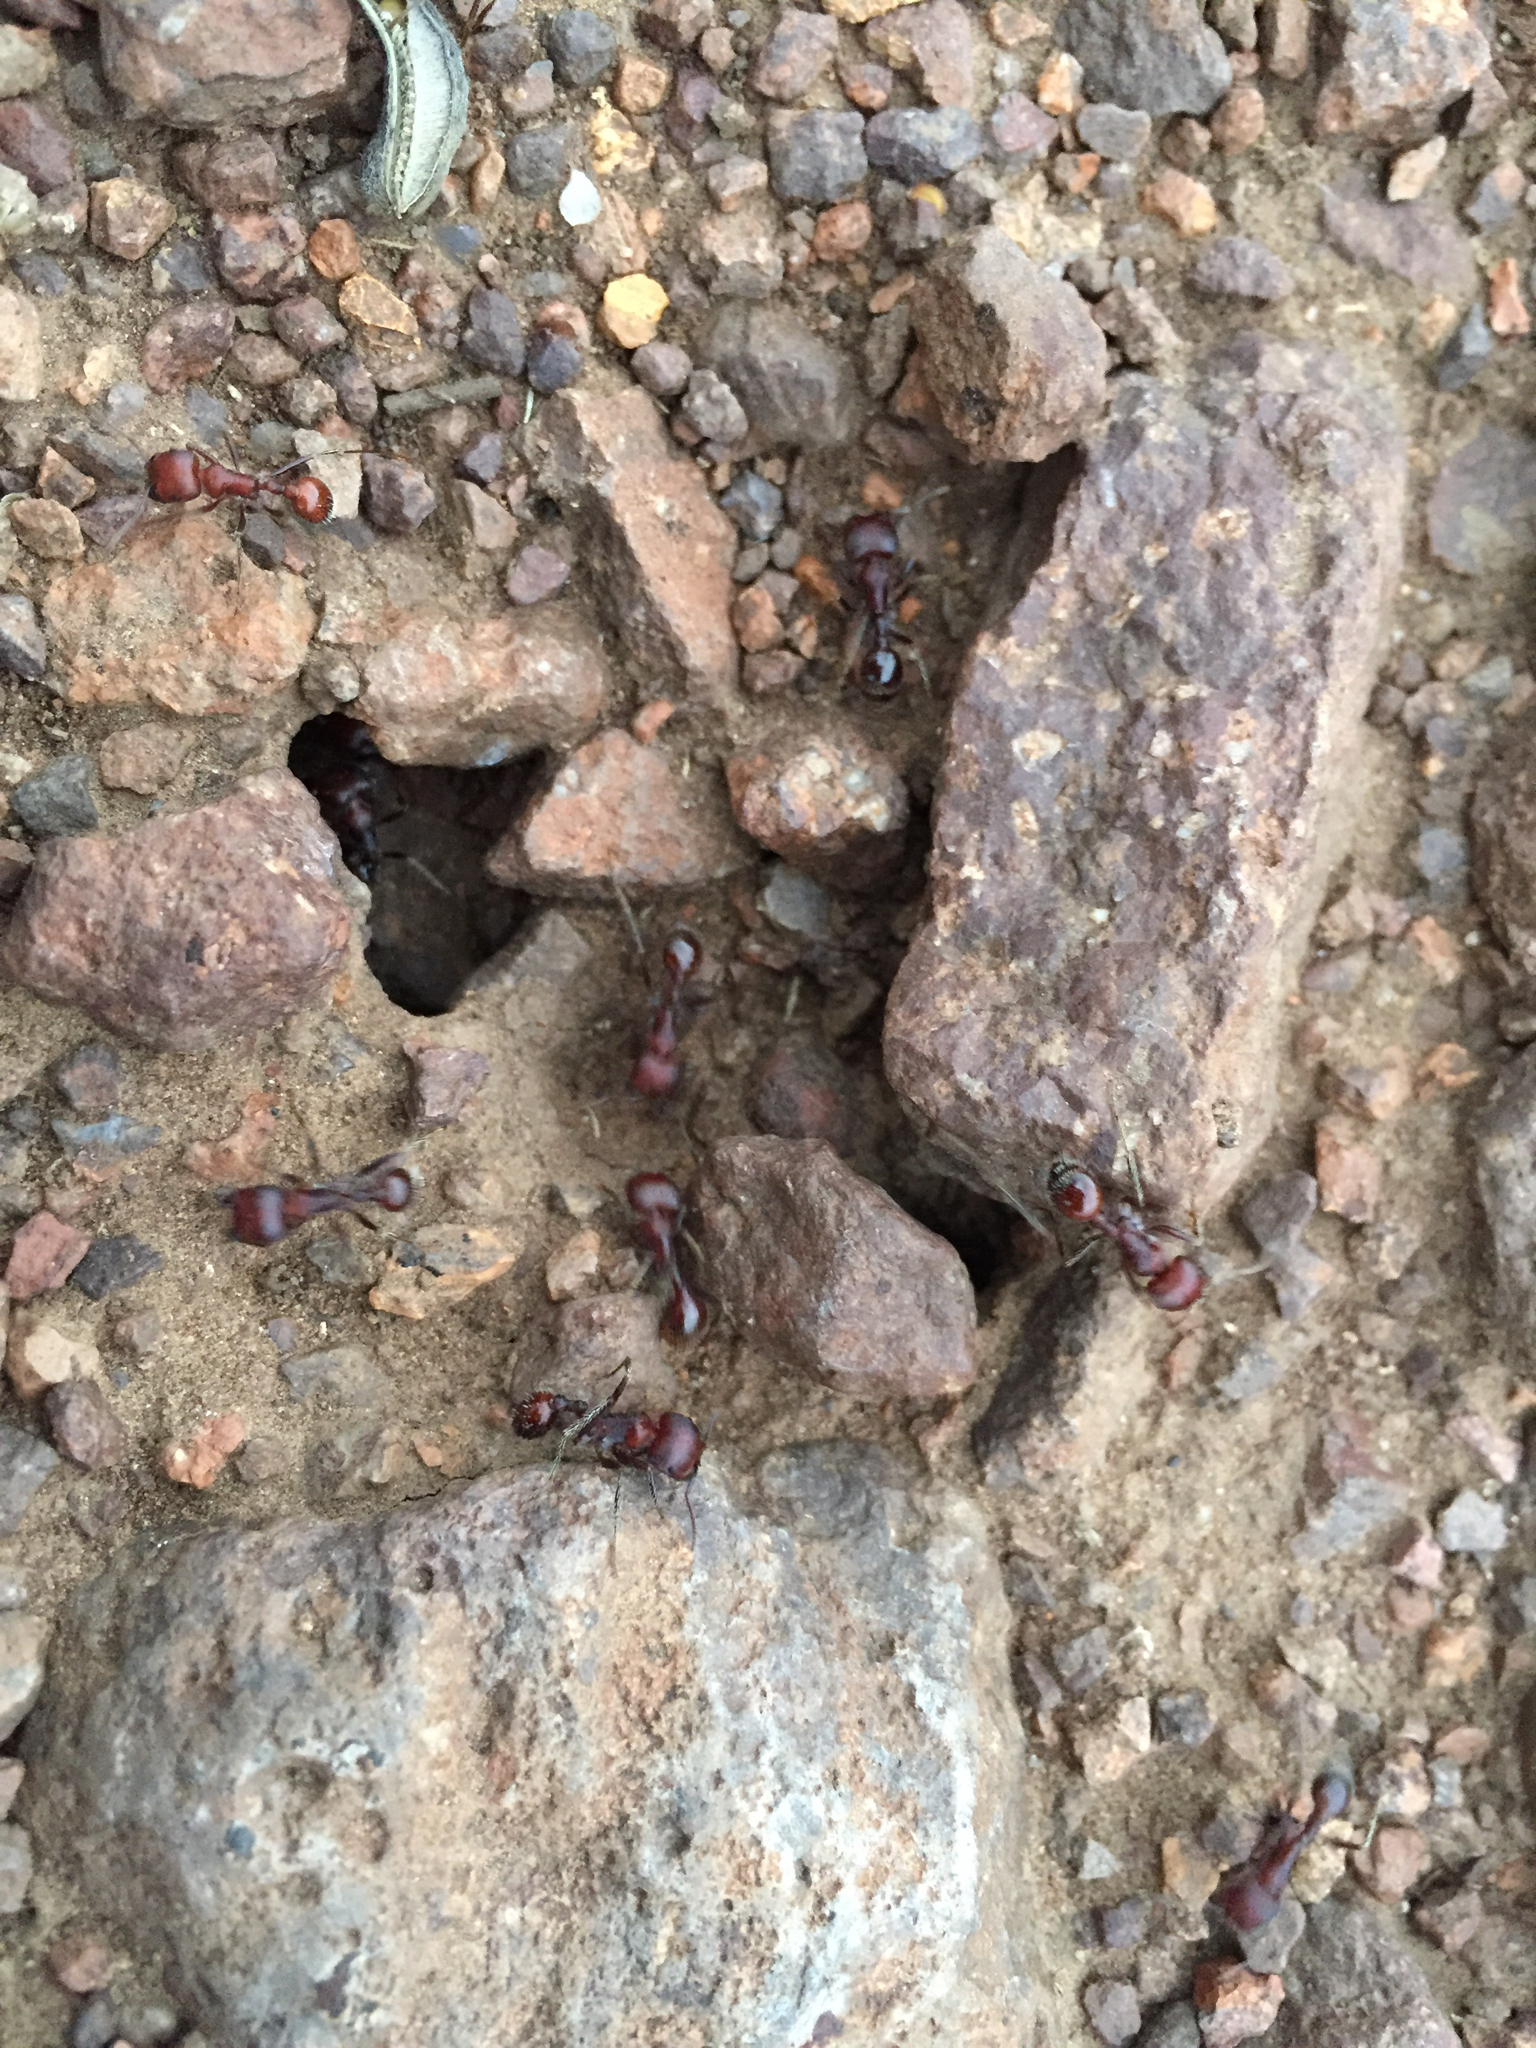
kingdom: Animalia
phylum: Arthropoda
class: Insecta
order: Hymenoptera
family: Formicidae
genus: Pogonomyrmex
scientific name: Pogonomyrmex
